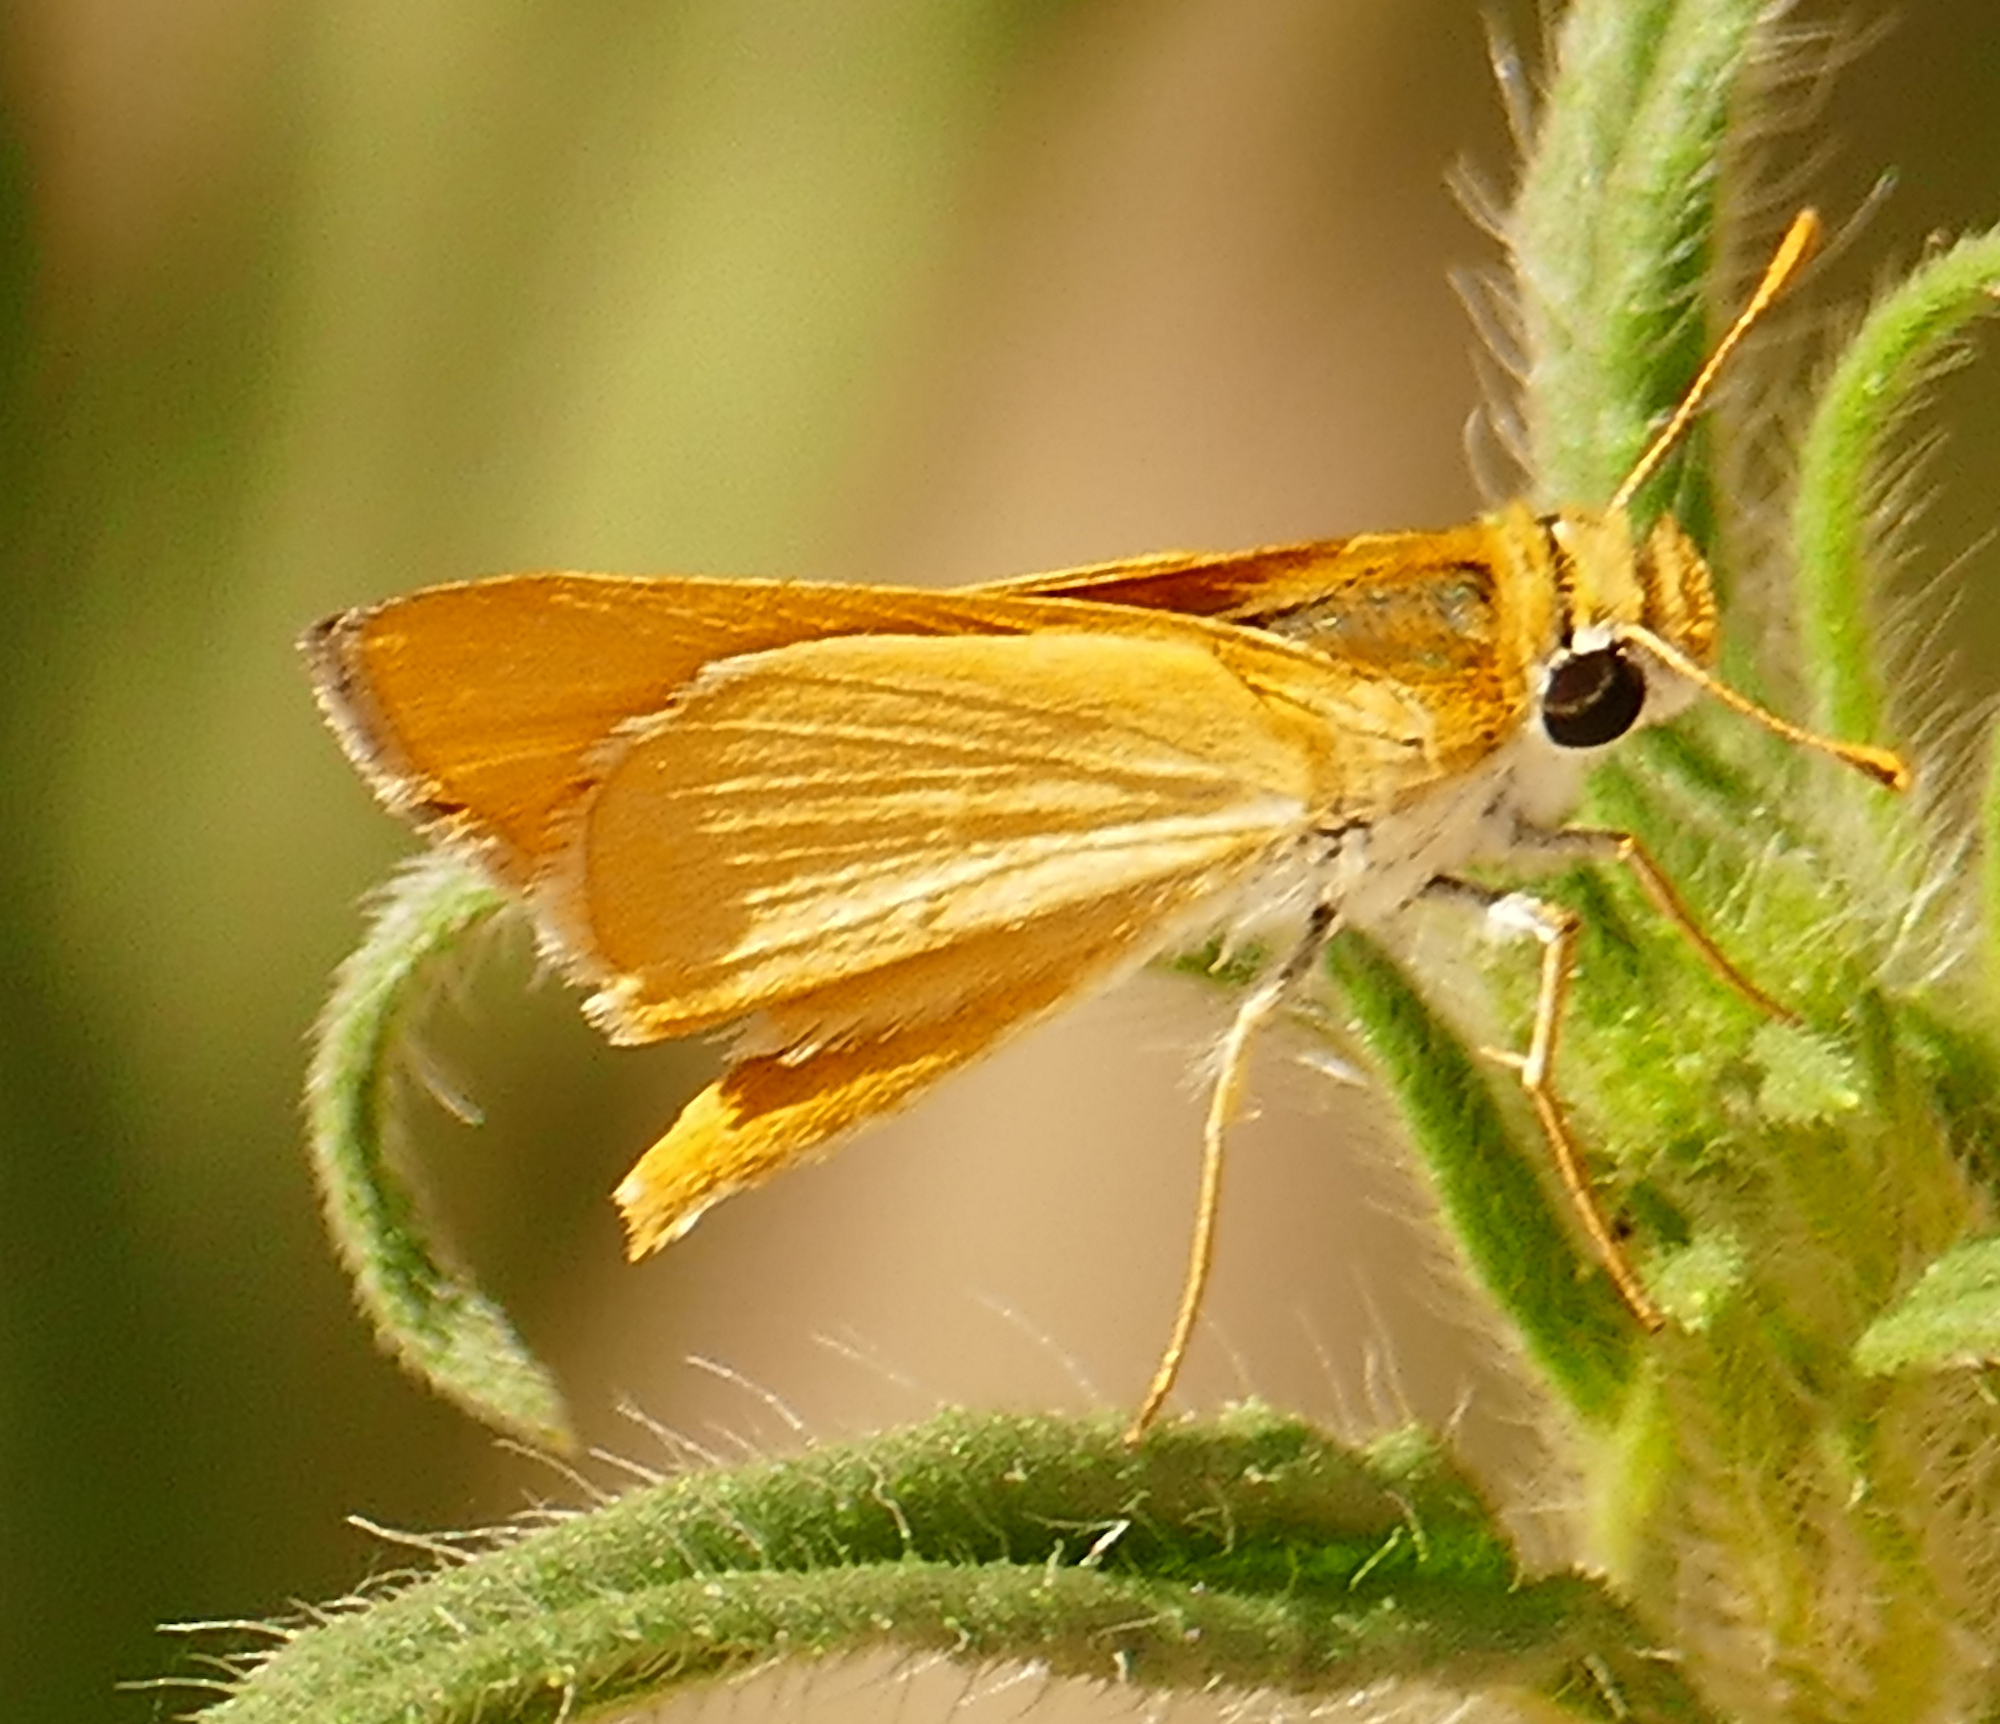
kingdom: Animalia
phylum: Arthropoda
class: Insecta
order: Lepidoptera
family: Hesperiidae
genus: Copaeodes
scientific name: Copaeodes aurantiaca
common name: Orange skipperling
